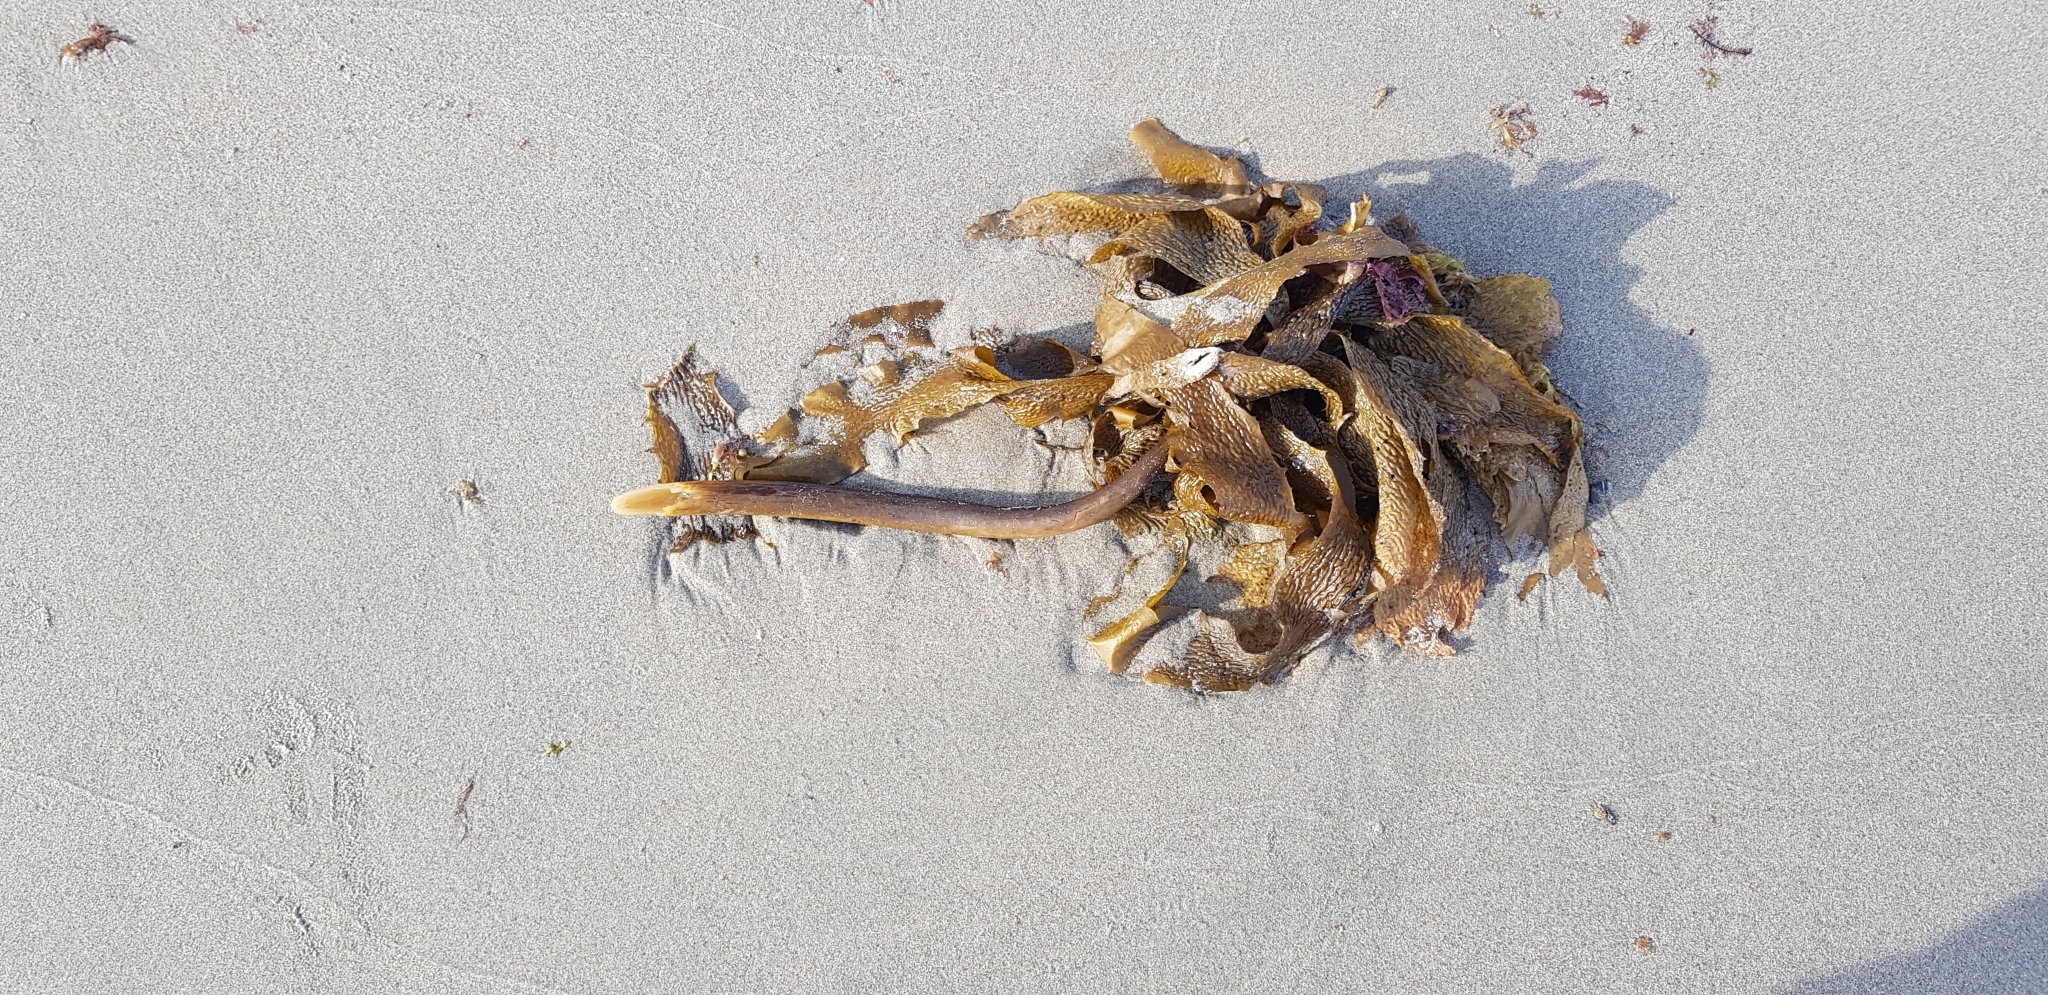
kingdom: Chromista
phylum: Ochrophyta
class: Phaeophyceae
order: Laminariales
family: Lessoniaceae
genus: Ecklonia
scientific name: Ecklonia radiata
